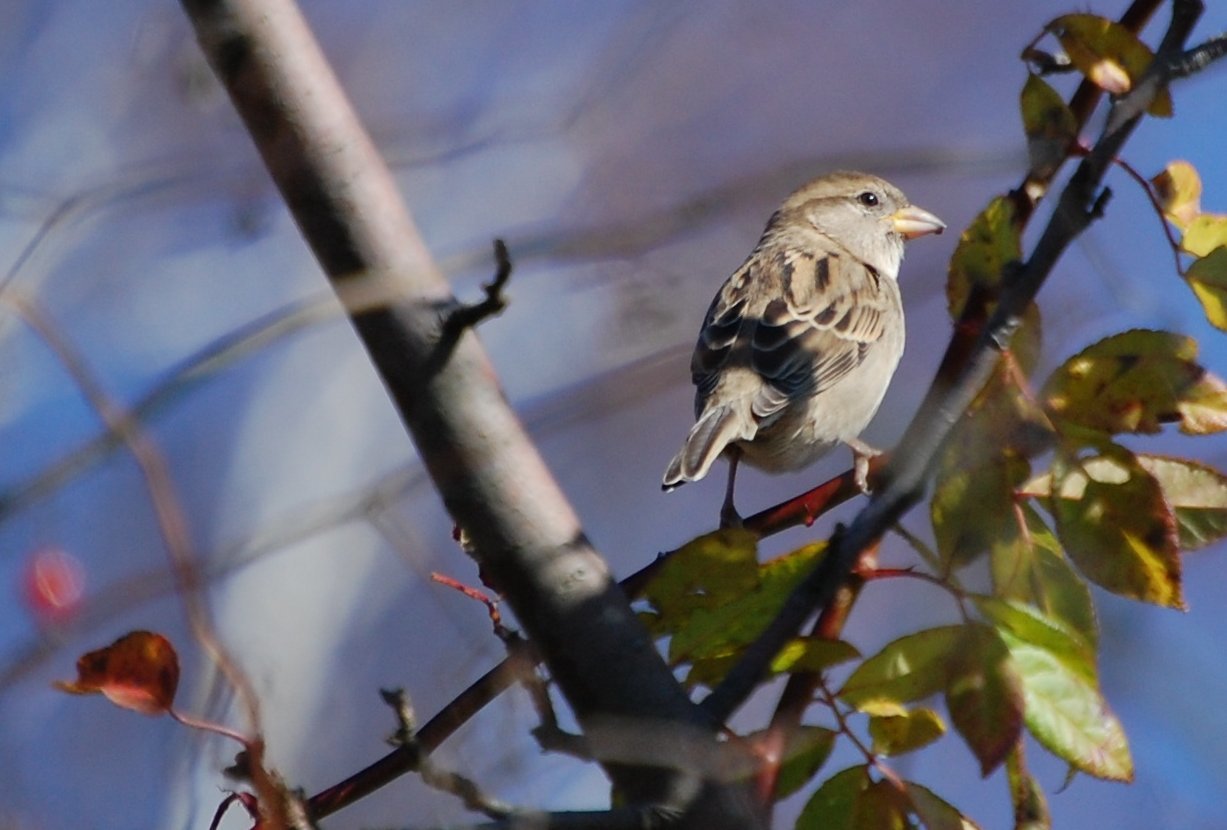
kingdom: Animalia
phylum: Chordata
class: Aves
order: Passeriformes
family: Passeridae
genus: Passer
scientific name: Passer domesticus
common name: House sparrow
